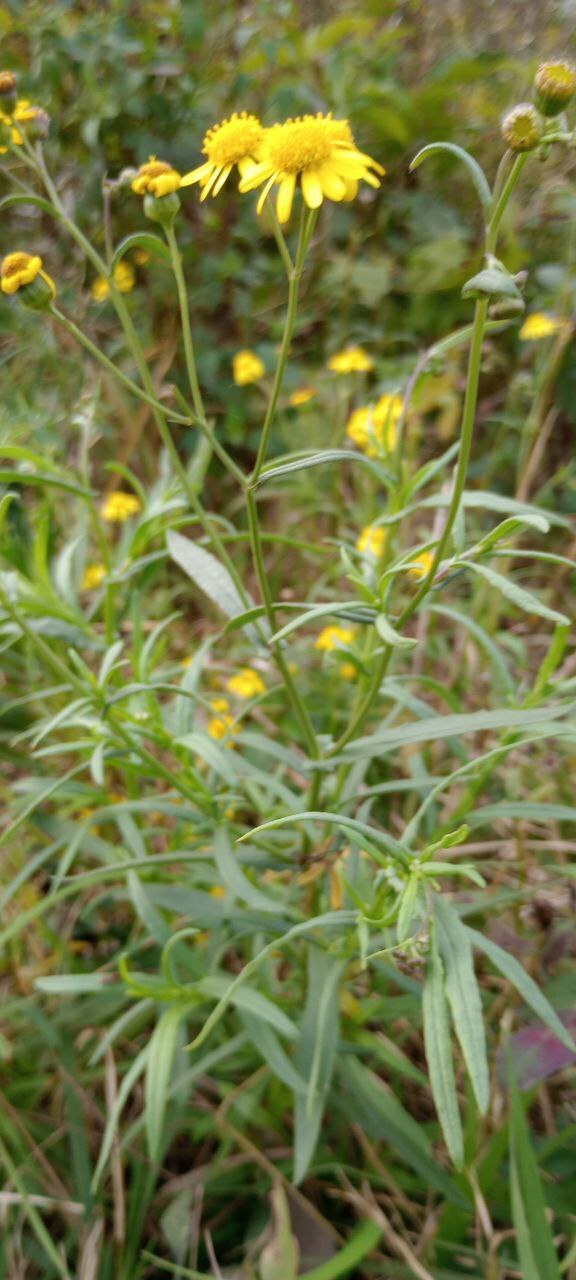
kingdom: Plantae
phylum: Tracheophyta
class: Magnoliopsida
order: Asterales
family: Asteraceae
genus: Pascalia
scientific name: Pascalia glauca
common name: Beach creeping oxeye
